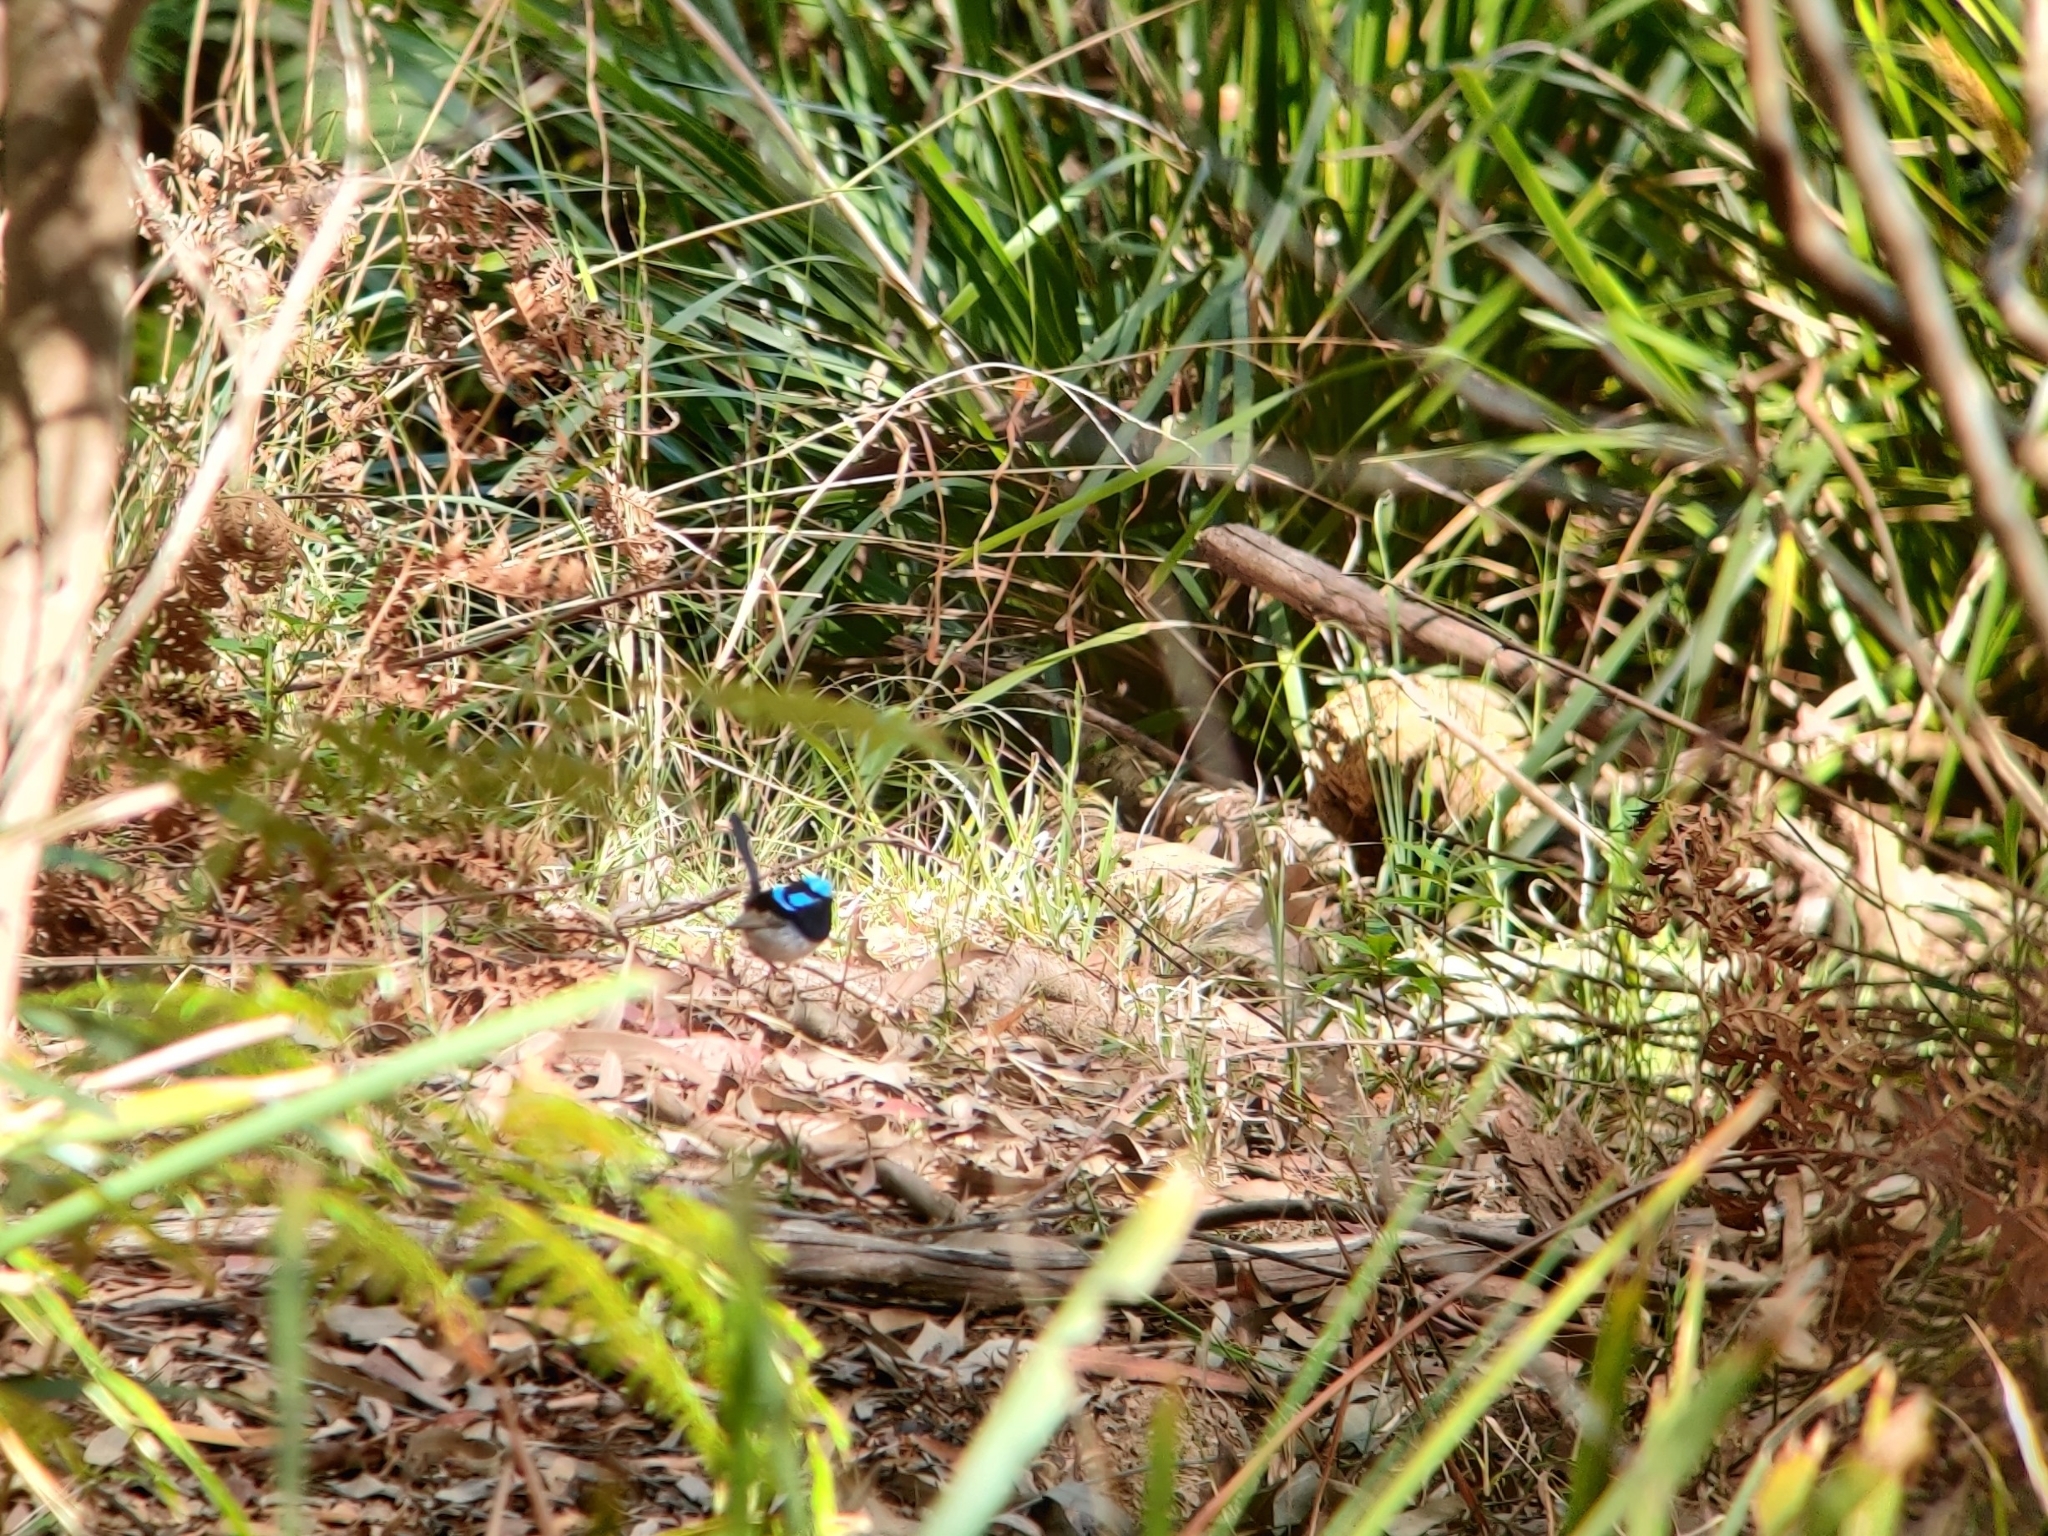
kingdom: Animalia
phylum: Chordata
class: Aves
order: Passeriformes
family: Maluridae
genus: Malurus
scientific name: Malurus cyaneus
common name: Superb fairywren
